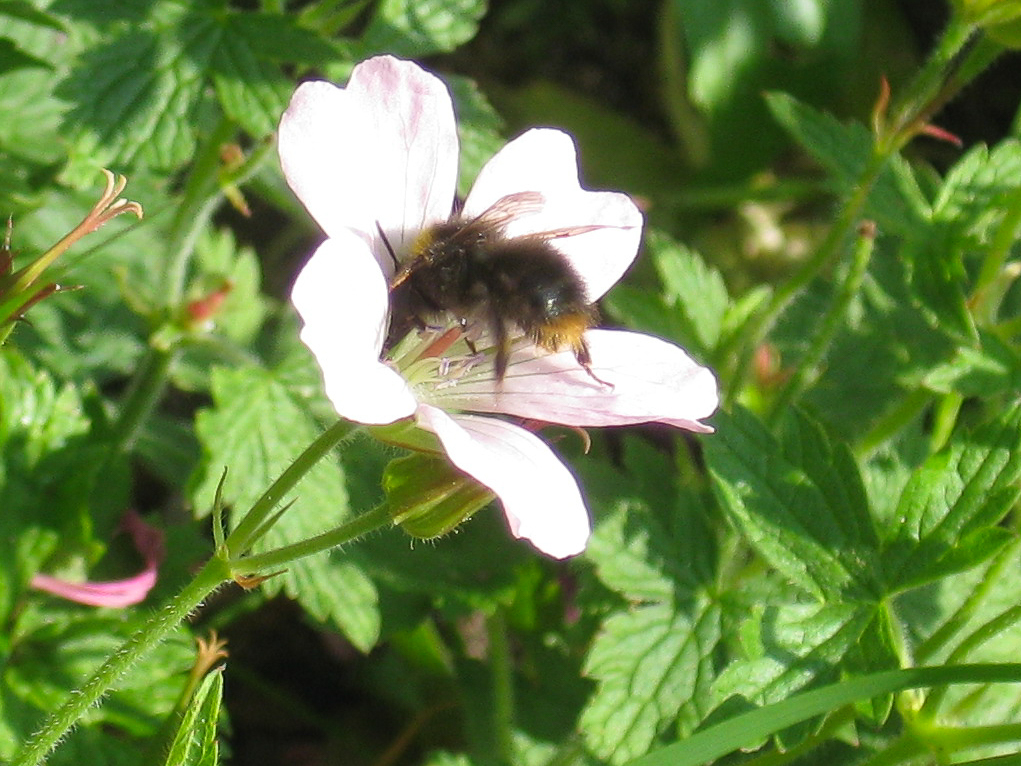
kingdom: Animalia
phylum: Arthropoda
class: Insecta
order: Hymenoptera
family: Apidae
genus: Bombus
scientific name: Bombus pratorum
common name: Early humble-bee
